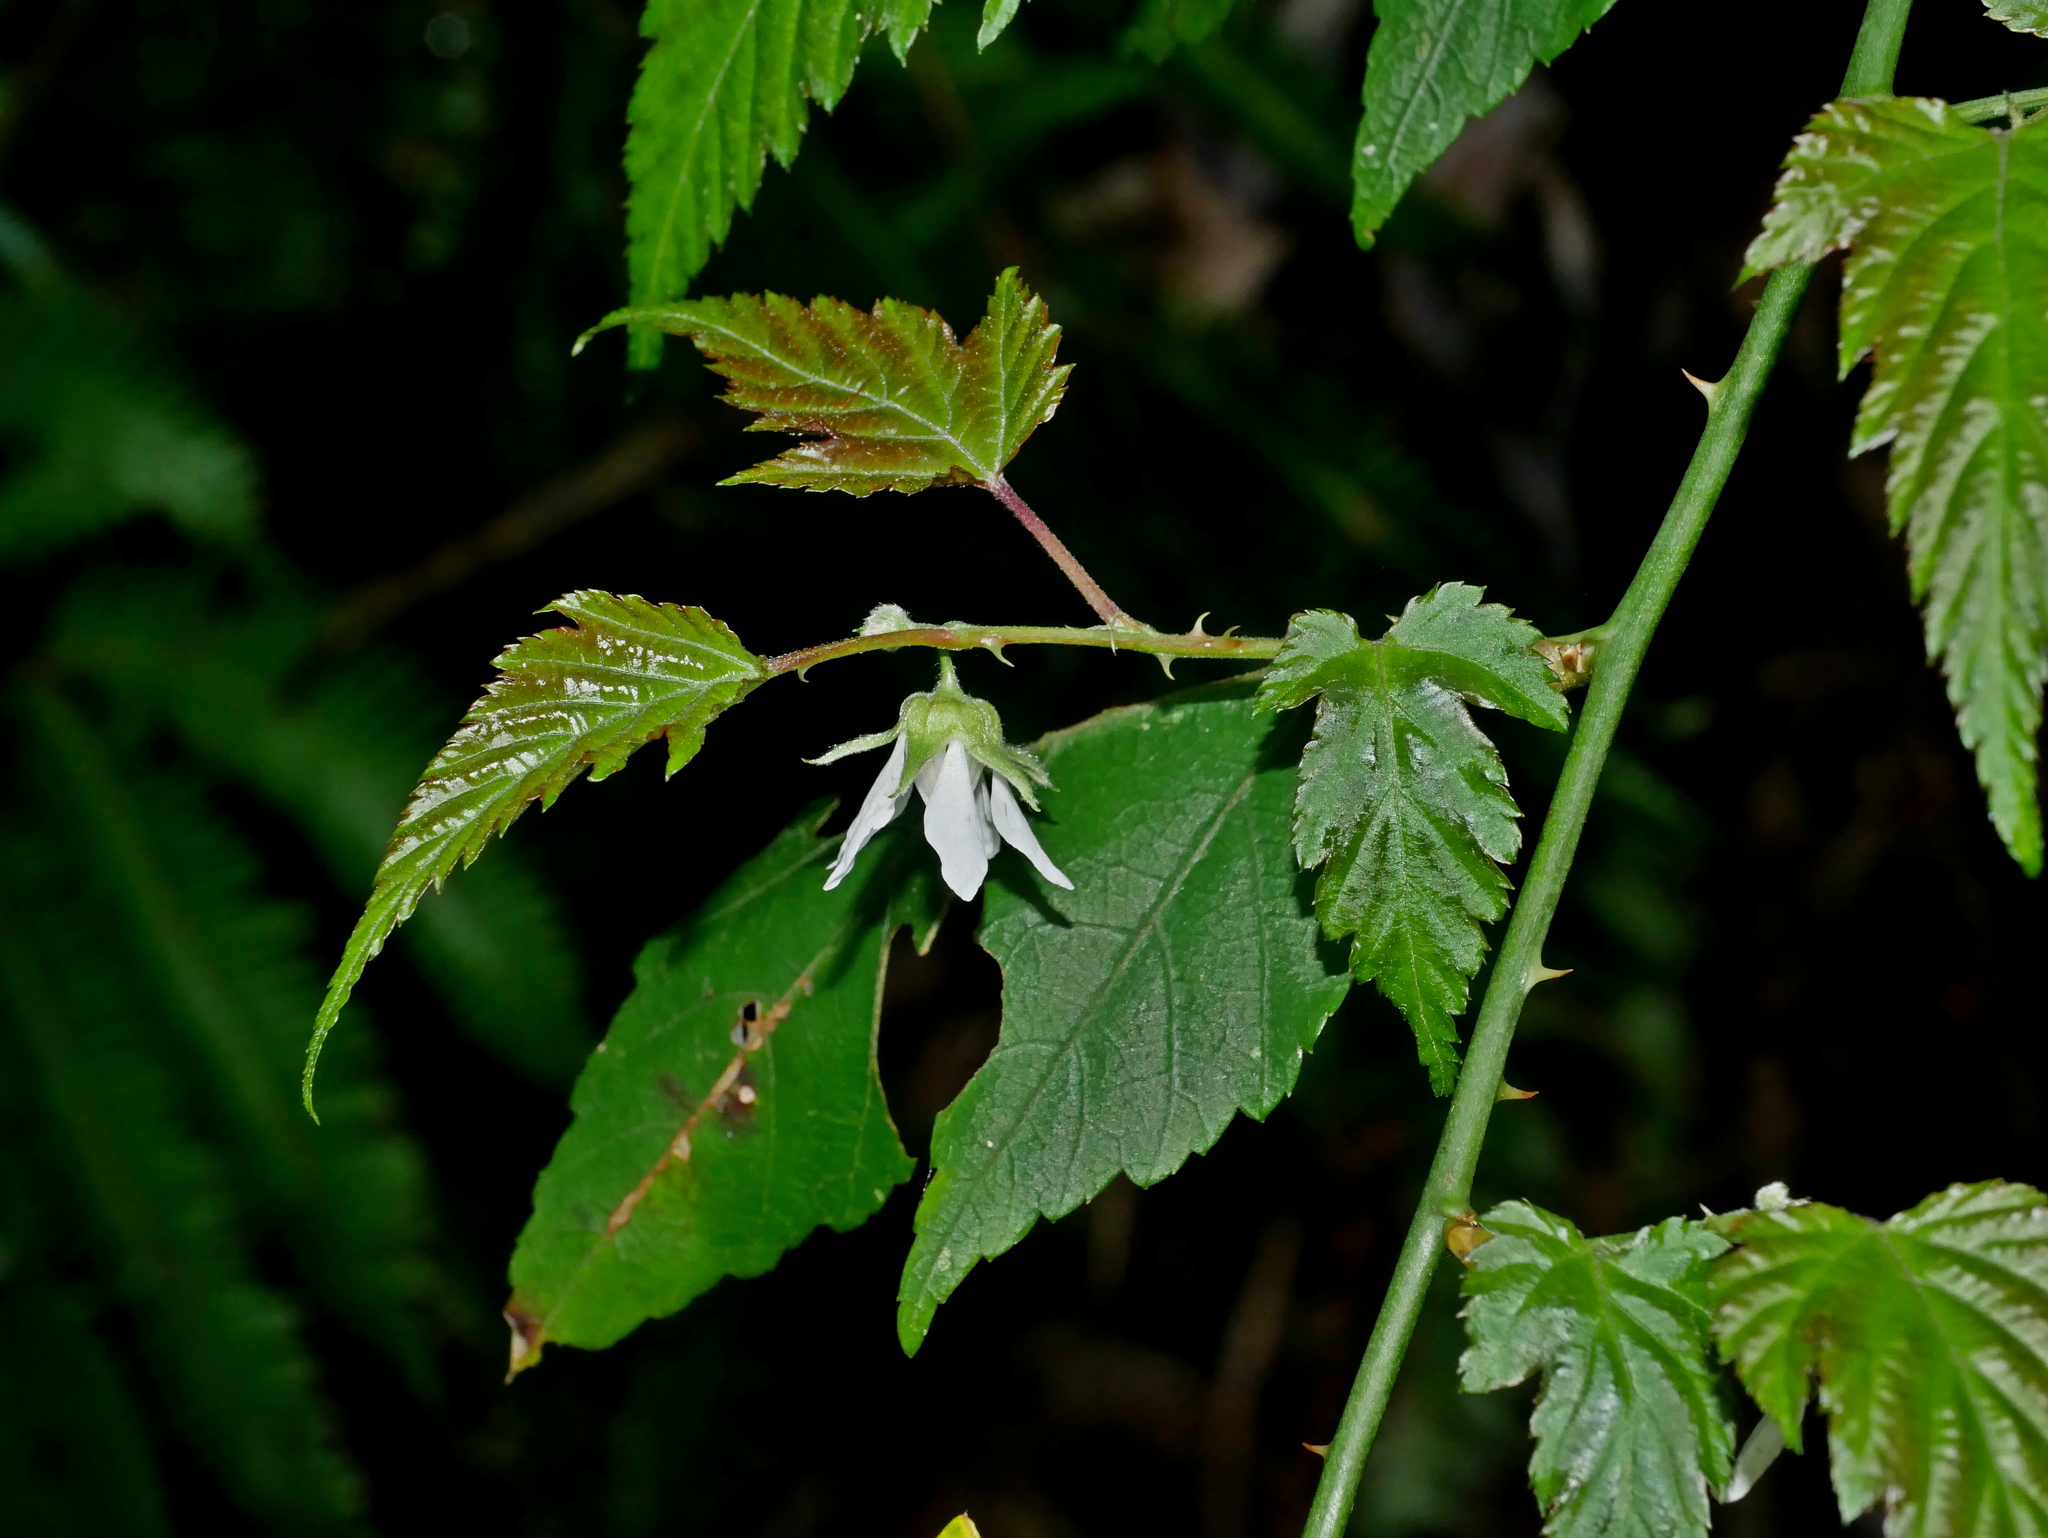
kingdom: Plantae
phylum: Tracheophyta
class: Magnoliopsida
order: Rosales
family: Rosaceae
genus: Rubus
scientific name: Rubus corchorifolius
